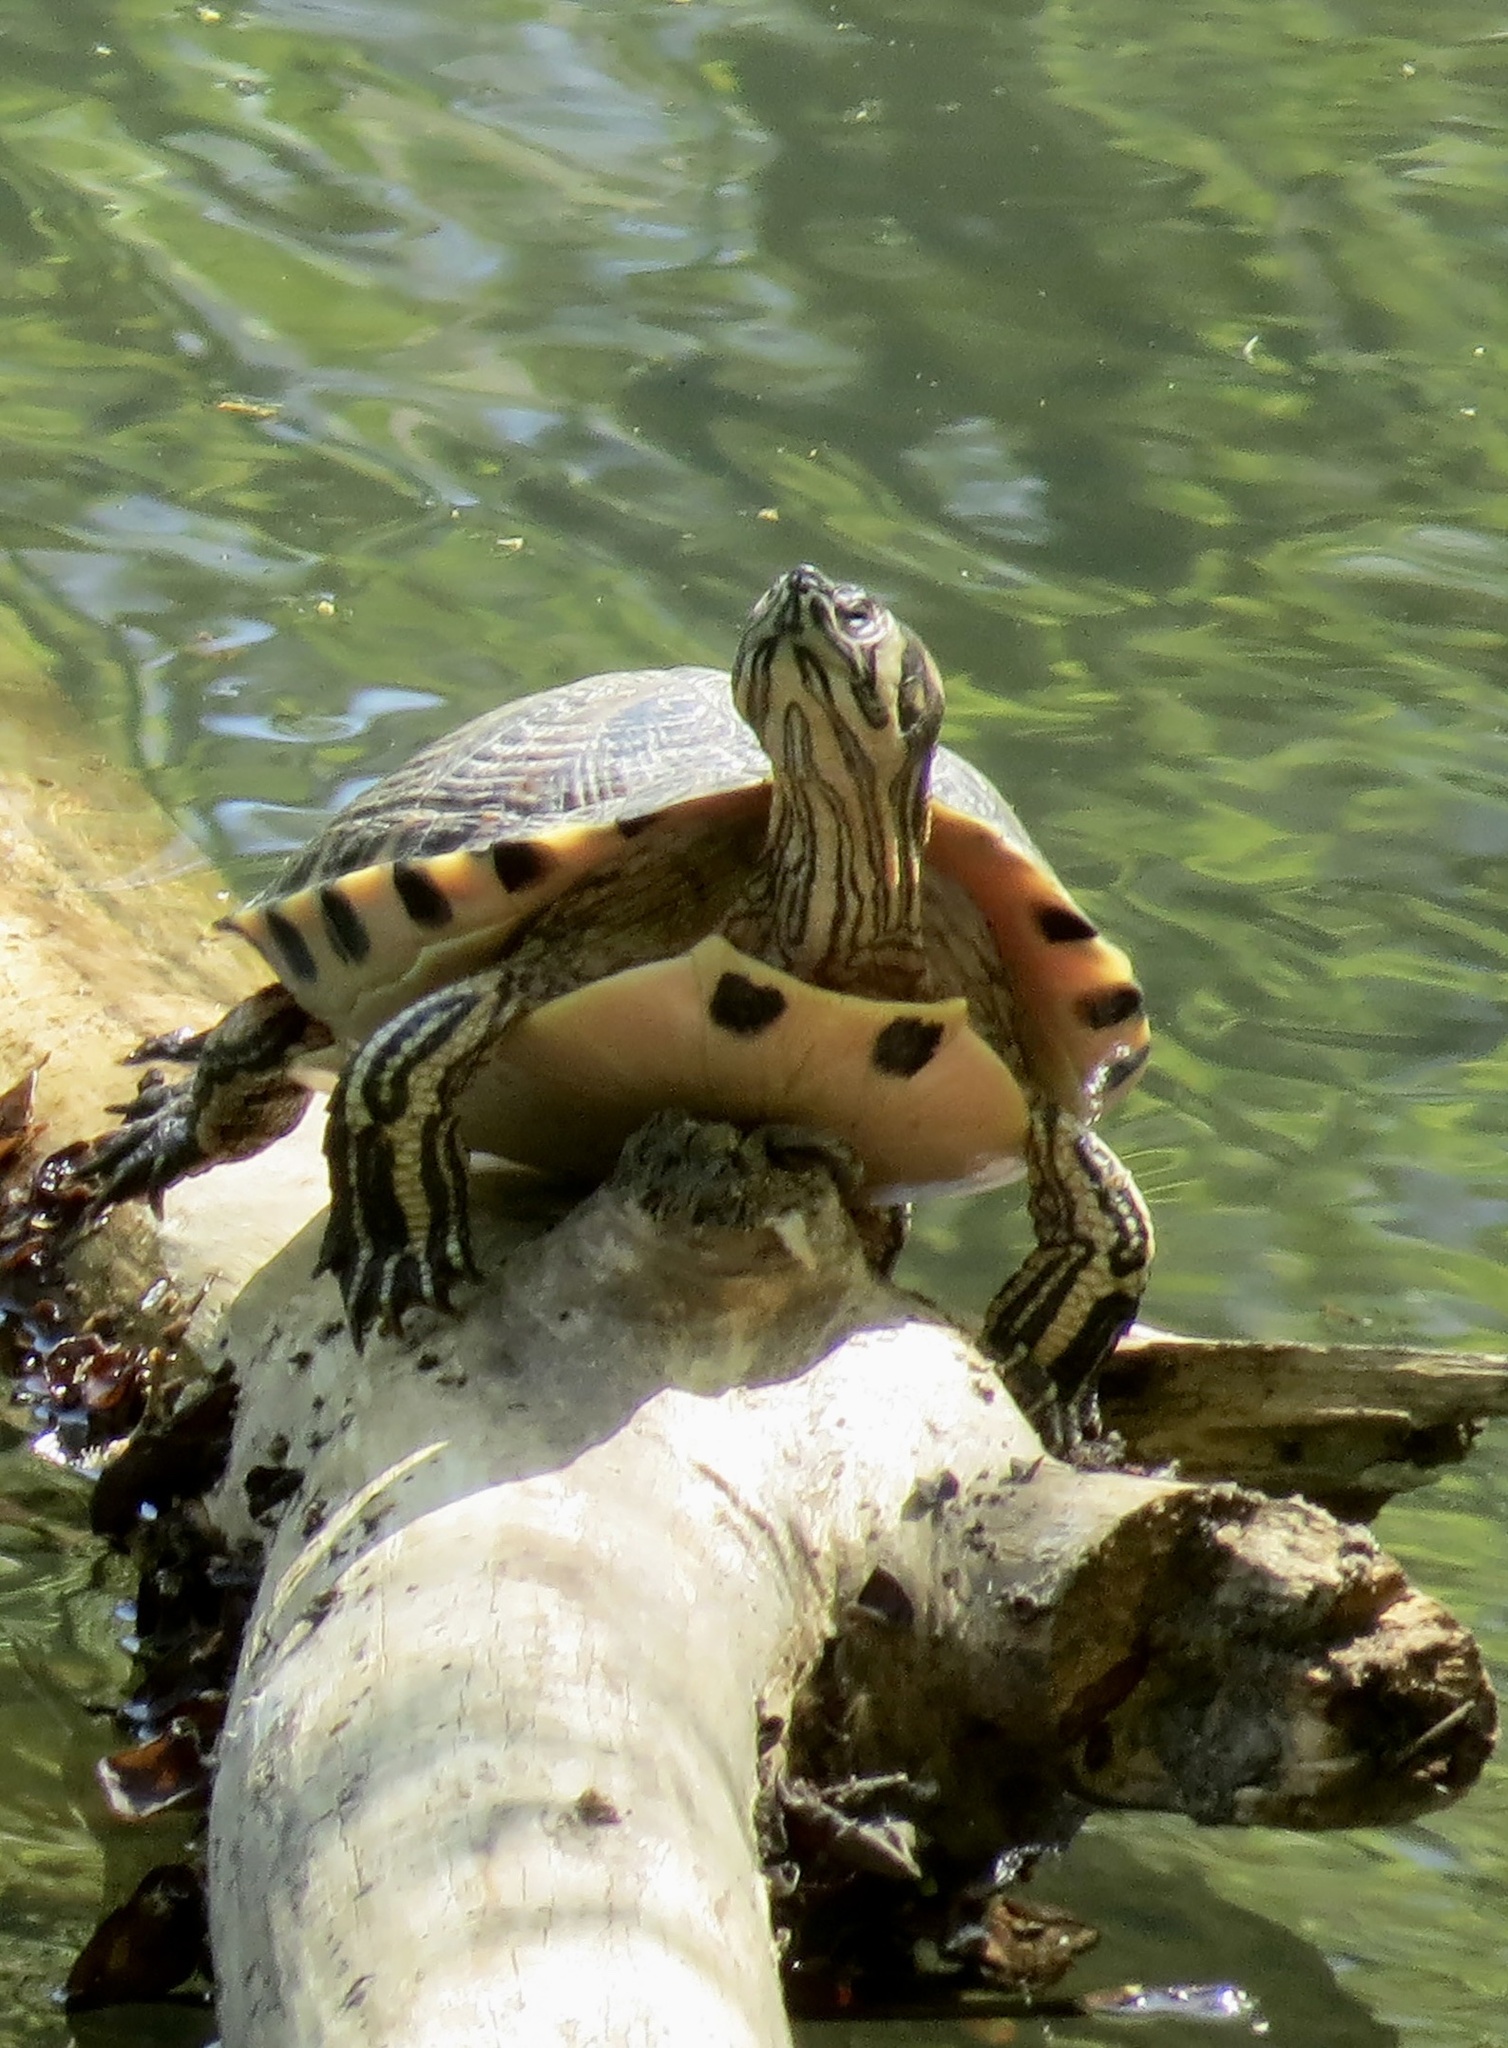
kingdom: Animalia
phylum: Chordata
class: Testudines
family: Emydidae
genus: Trachemys
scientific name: Trachemys scripta
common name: Slider
